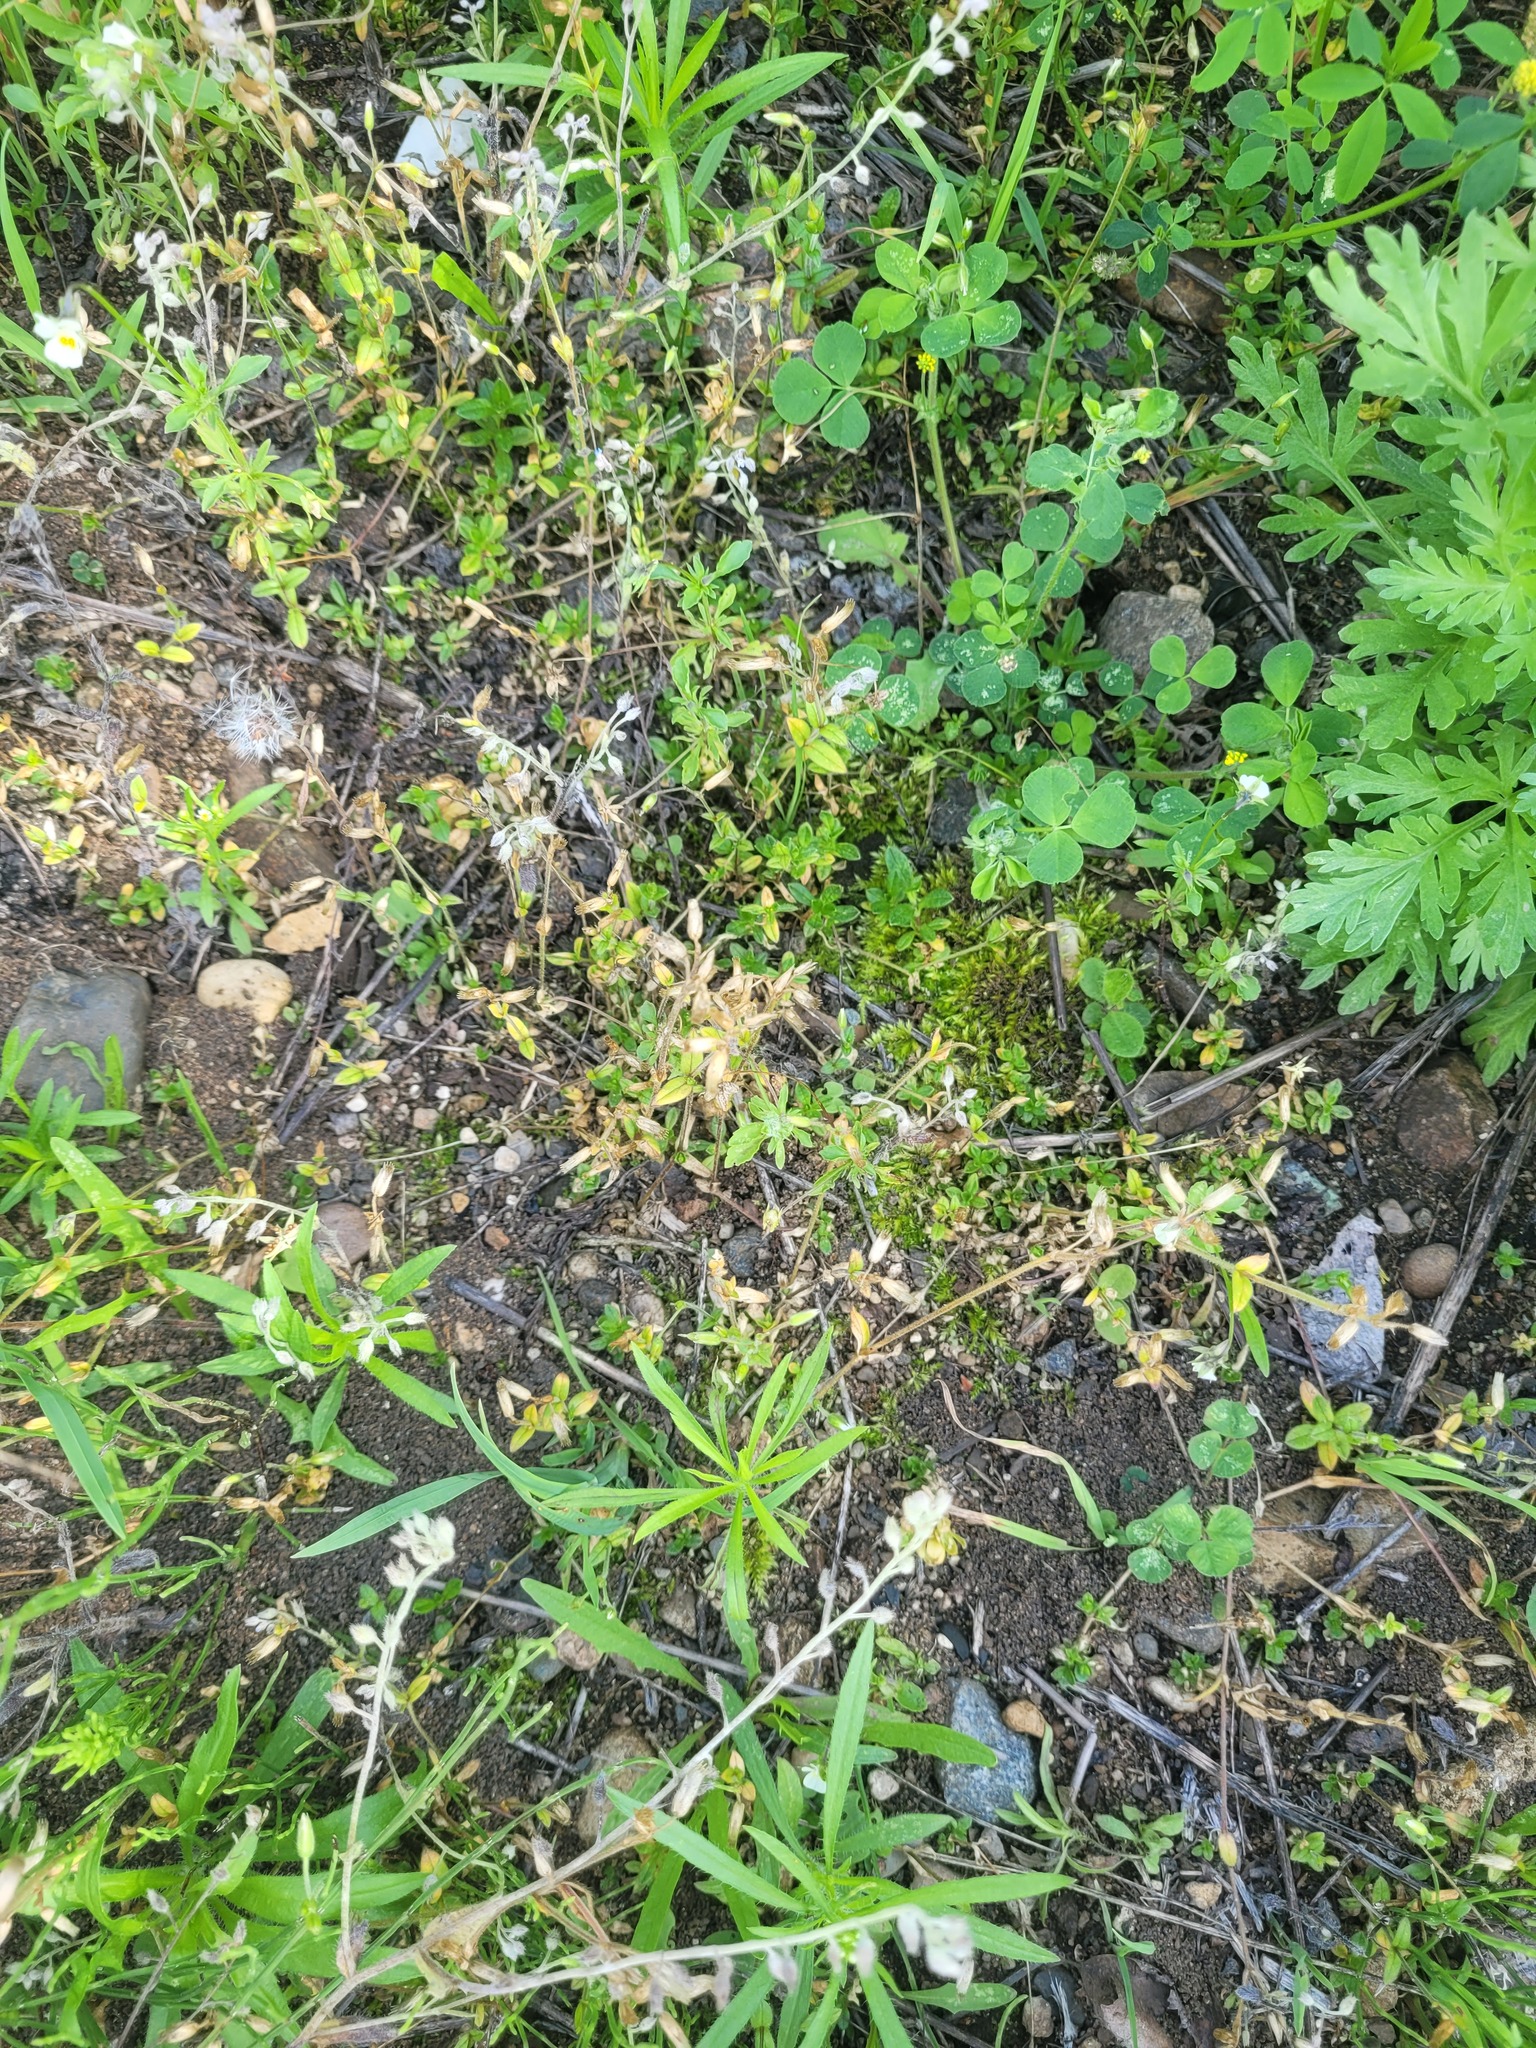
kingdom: Plantae
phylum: Tracheophyta
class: Magnoliopsida
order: Caryophyllales
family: Caryophyllaceae
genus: Cerastium
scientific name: Cerastium holosteoides
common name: Big chickweed
